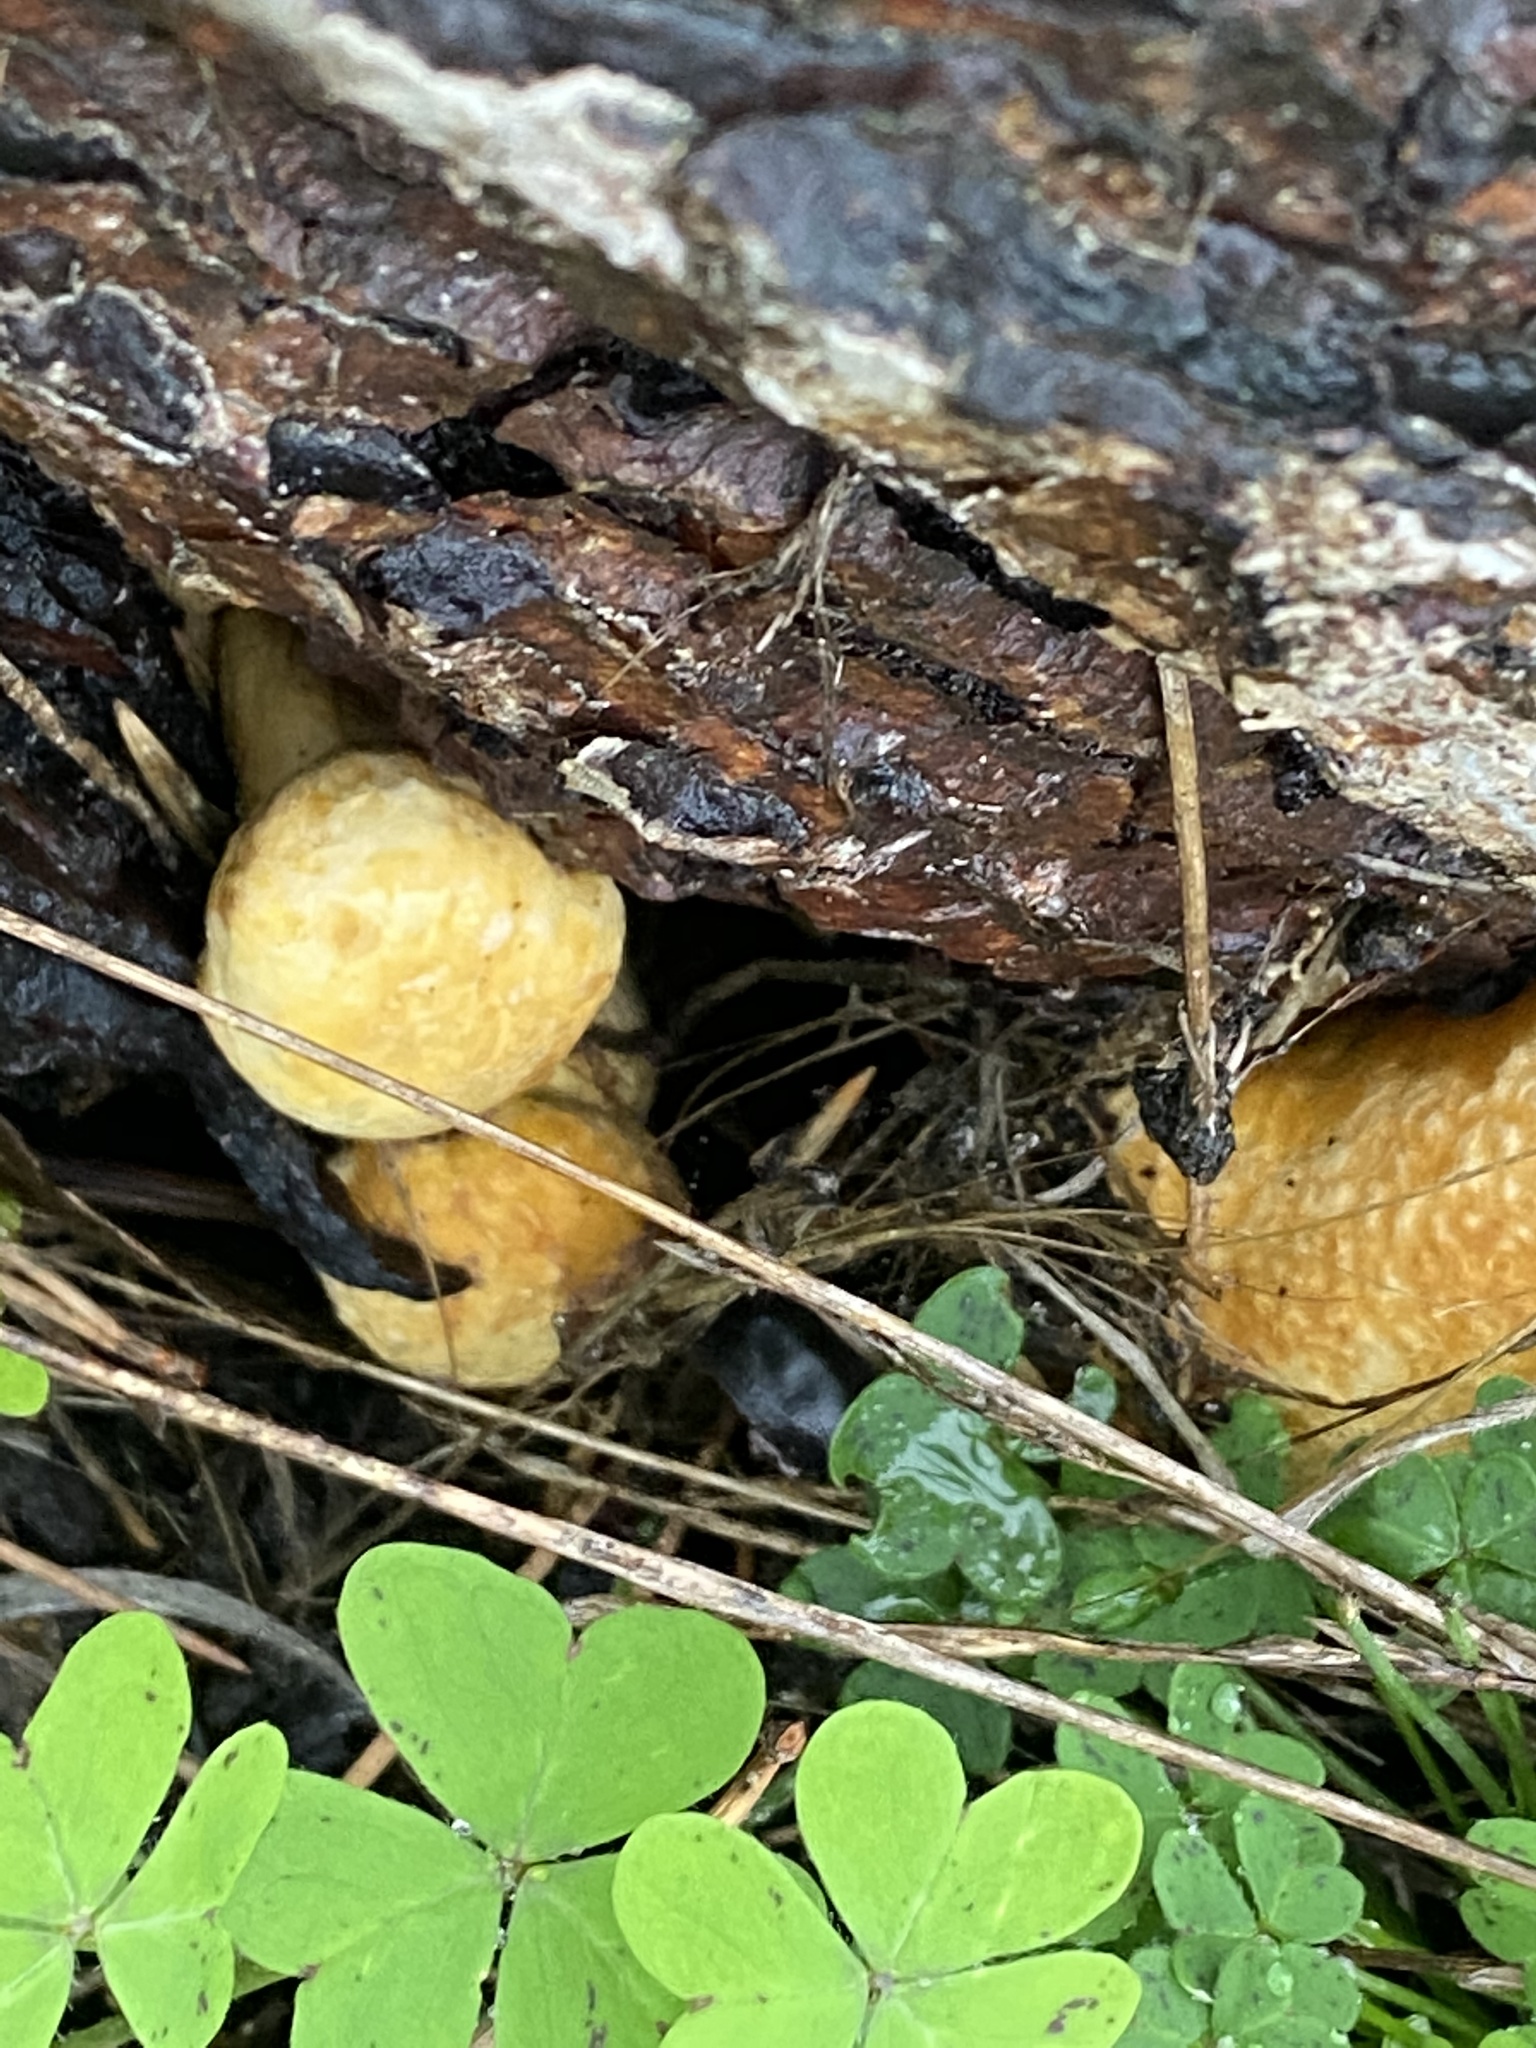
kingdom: Fungi
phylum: Basidiomycota
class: Agaricomycetes
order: Agaricales
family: Hymenogastraceae
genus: Gymnopilus
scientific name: Gymnopilus ventricosus
